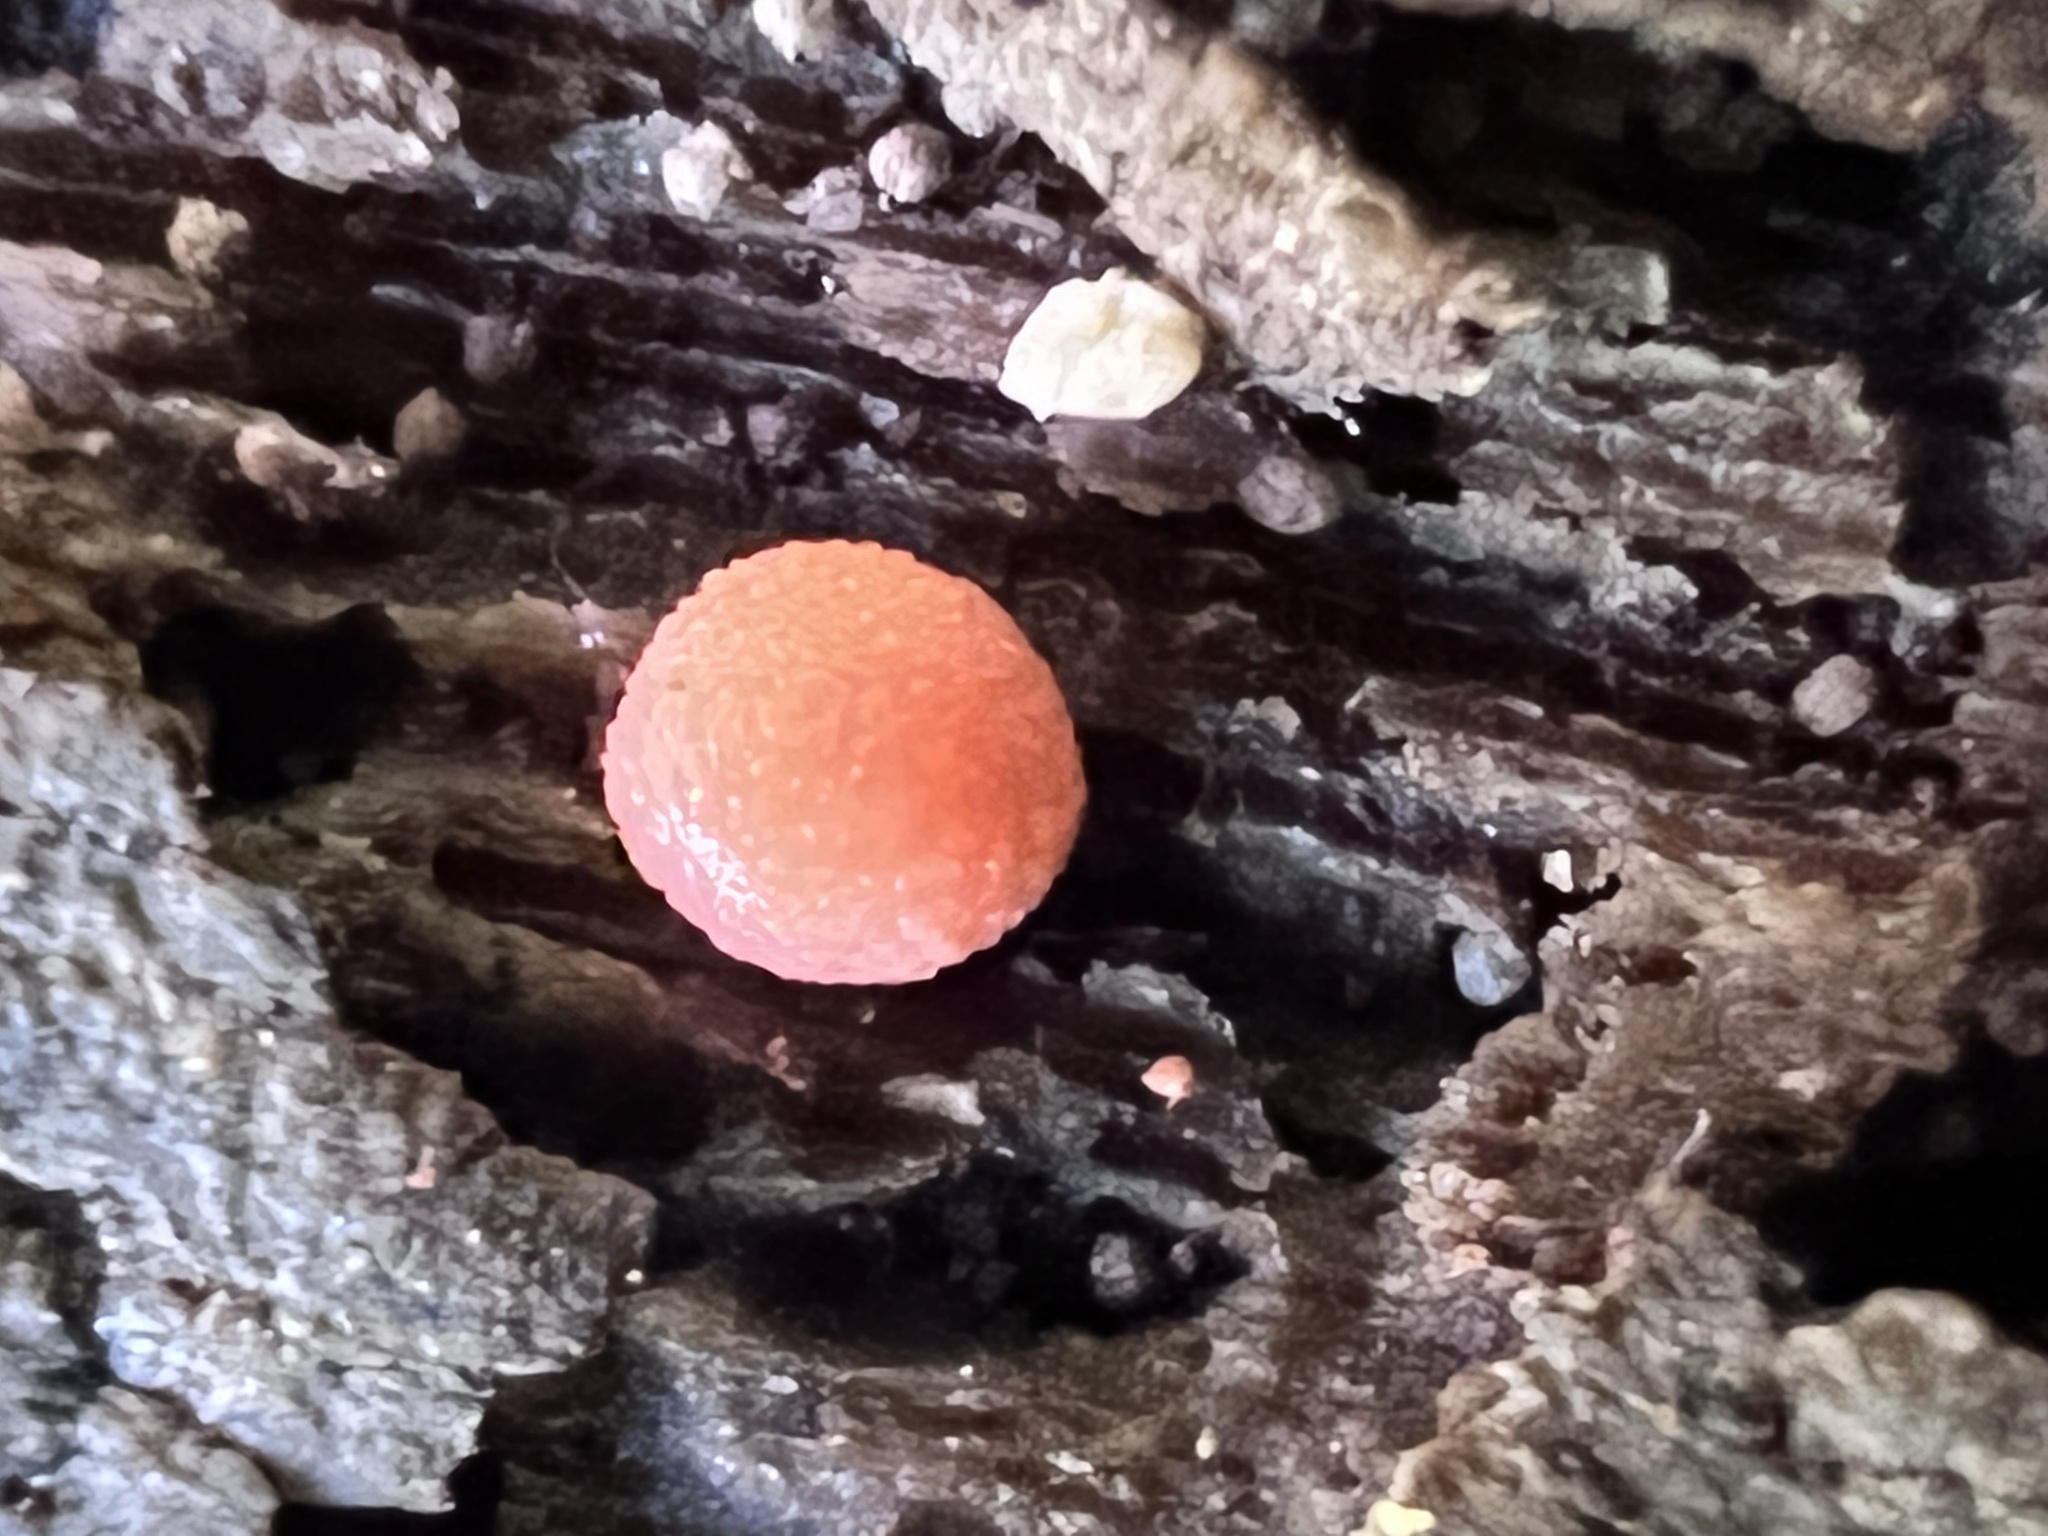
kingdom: Protozoa
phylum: Mycetozoa
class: Myxomycetes
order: Cribrariales
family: Tubiferaceae
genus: Tubifera
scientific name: Tubifera ferruginosa
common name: Red raspberry slime mold
